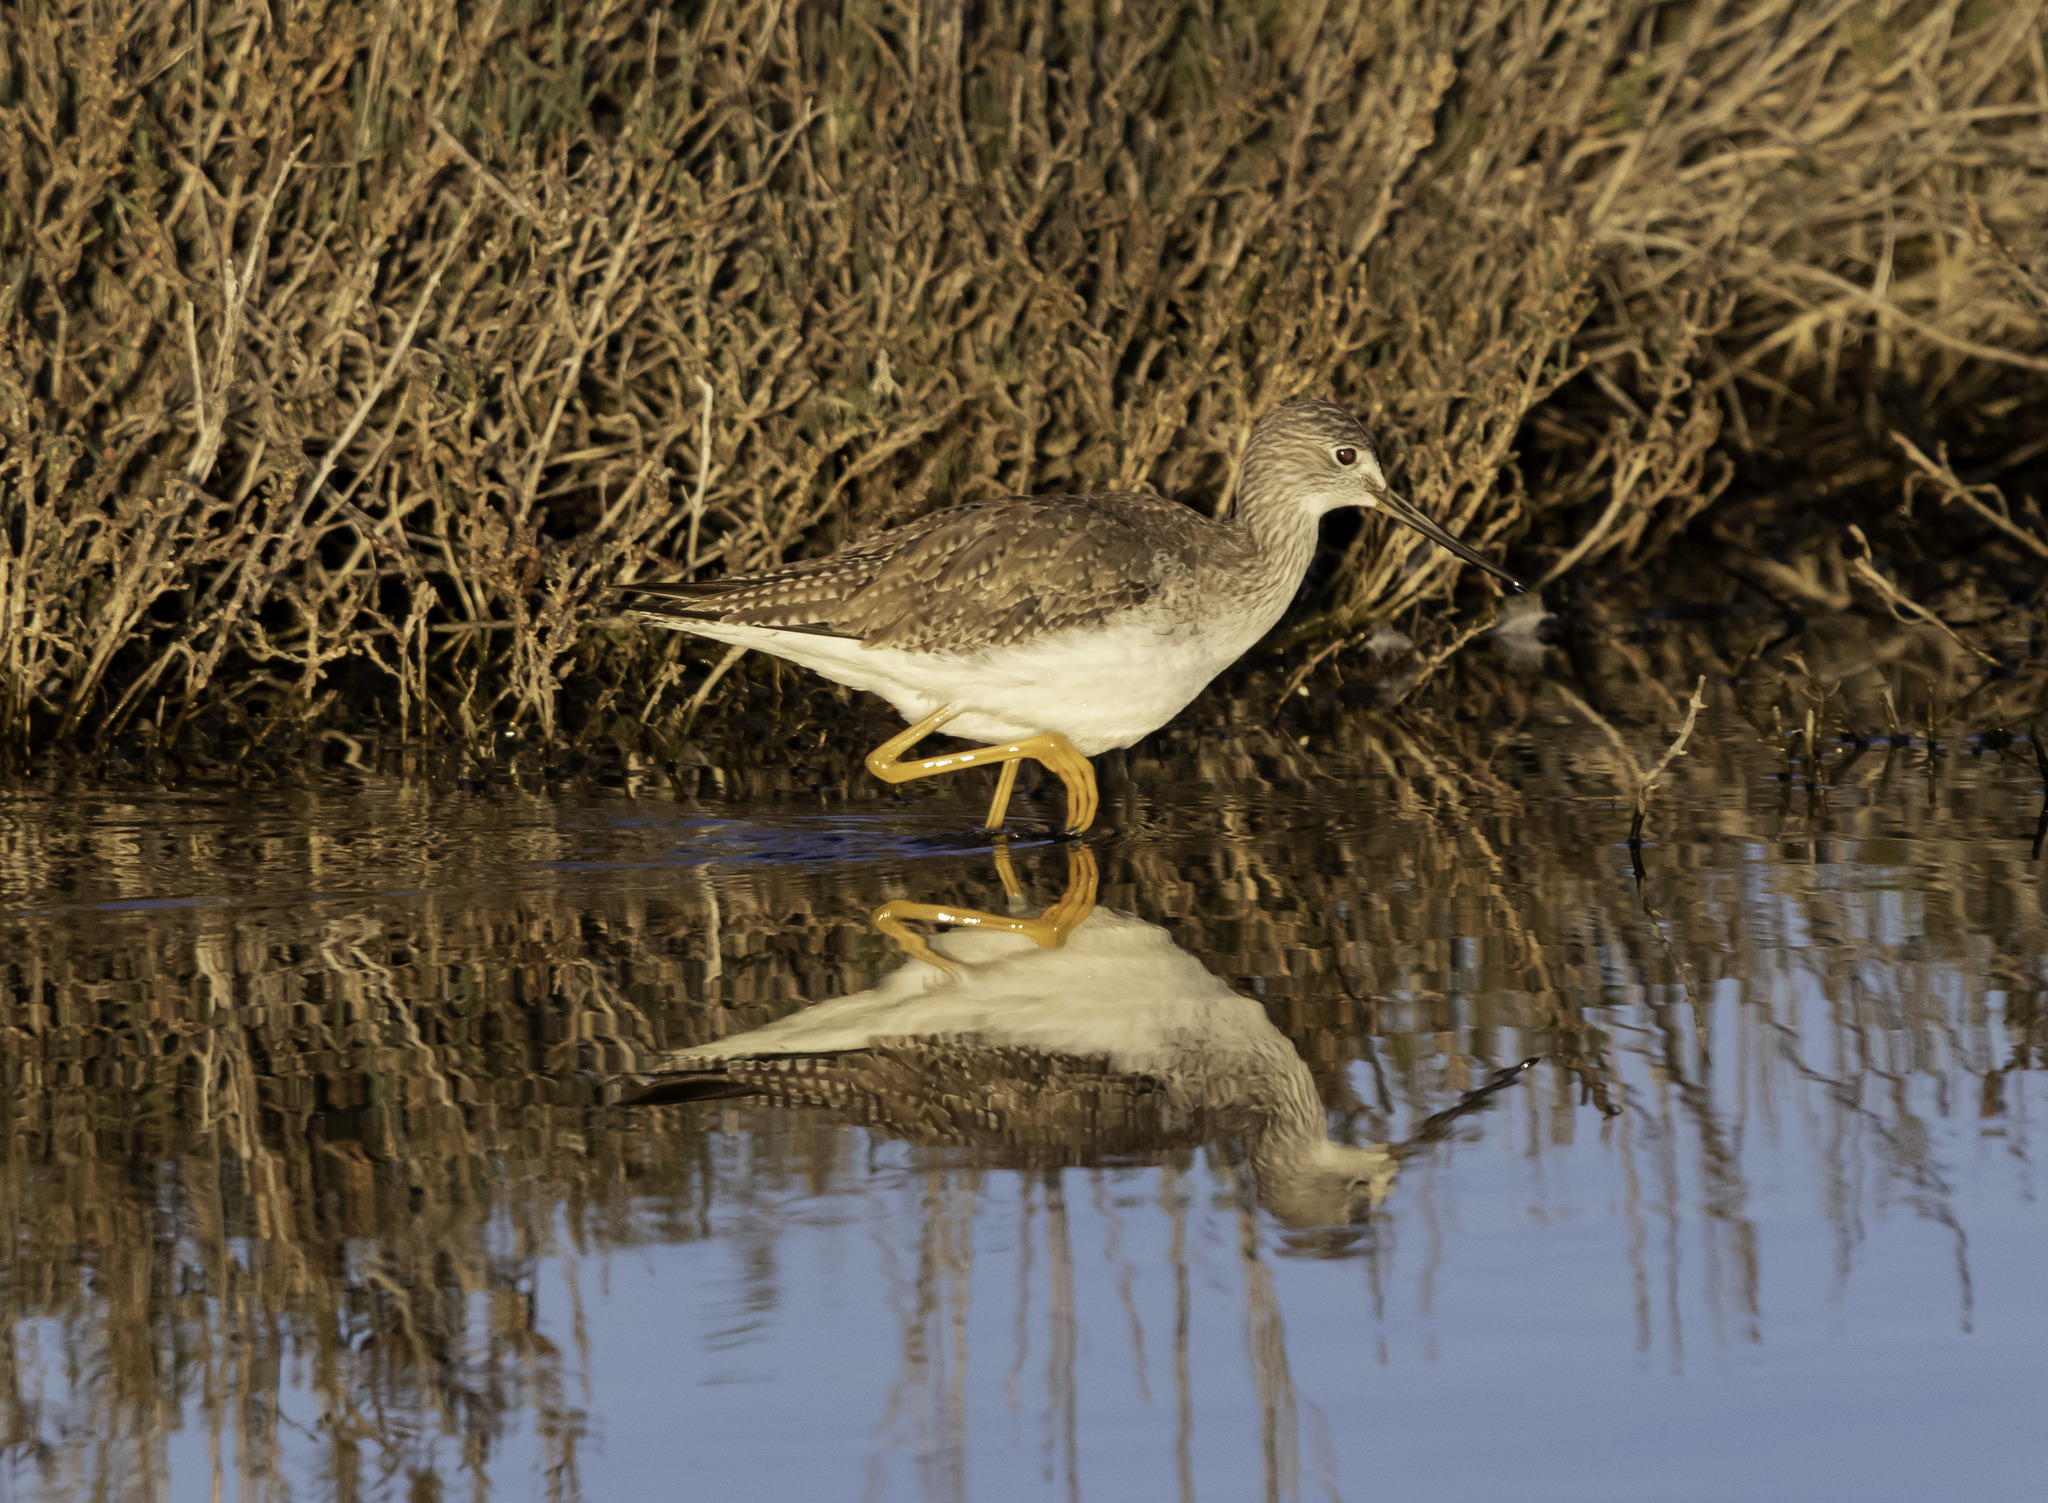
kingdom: Animalia
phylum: Chordata
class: Aves
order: Charadriiformes
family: Scolopacidae
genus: Tringa
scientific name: Tringa melanoleuca
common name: Greater yellowlegs
